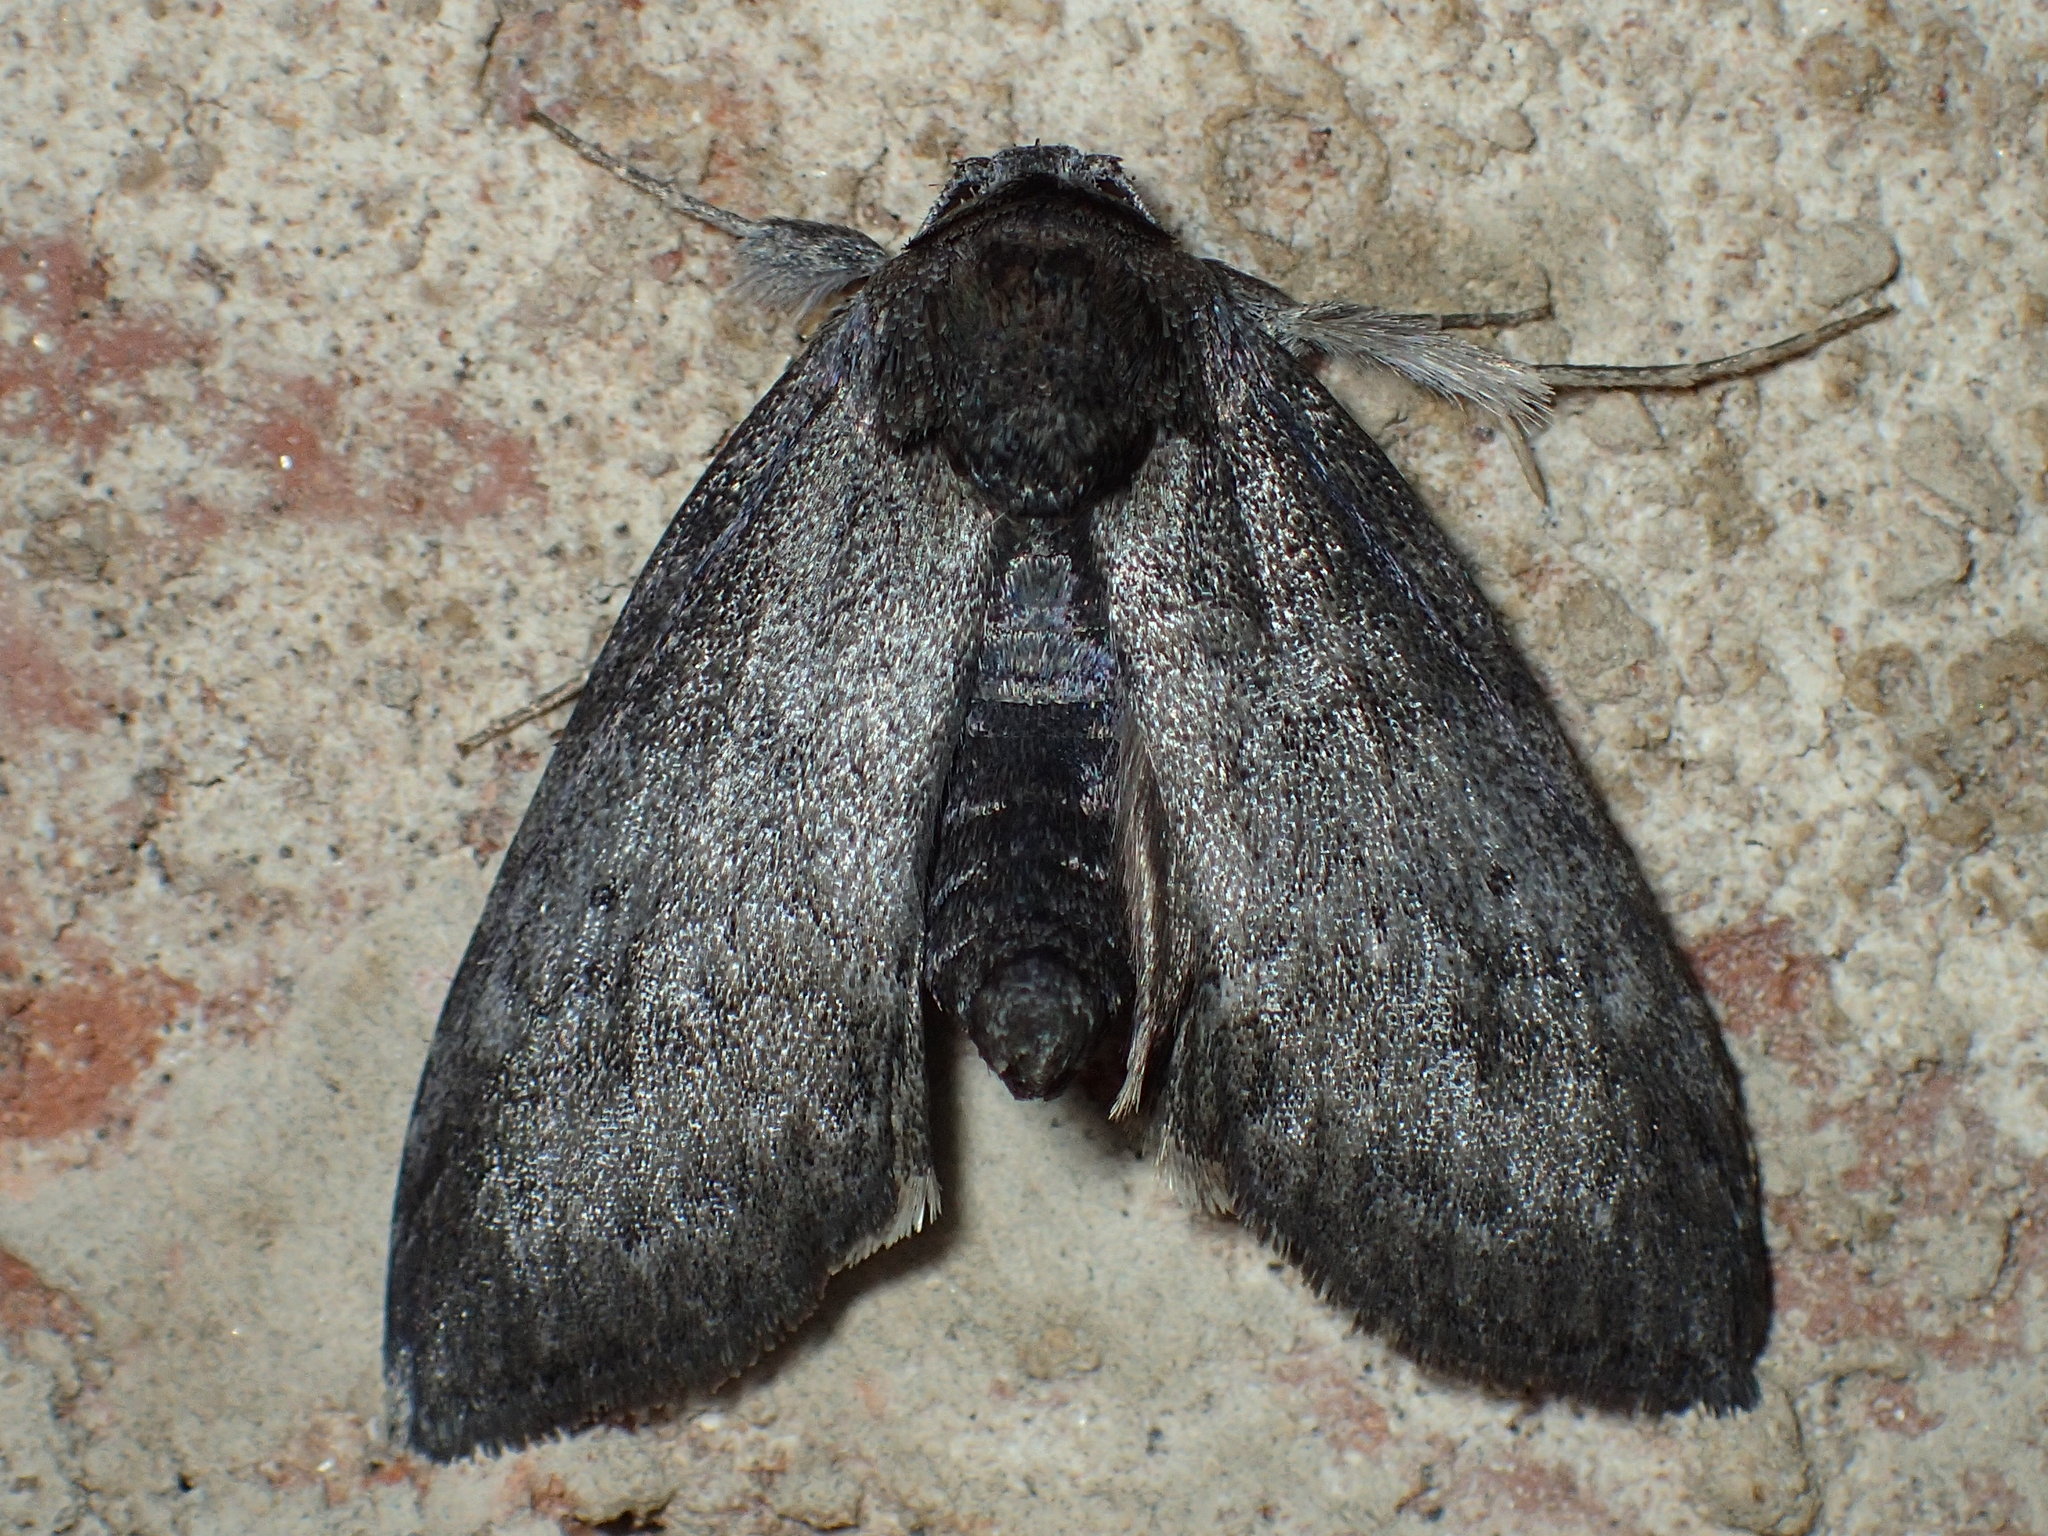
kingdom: Animalia
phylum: Arthropoda
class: Insecta
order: Lepidoptera
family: Nolidae
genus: Baileya
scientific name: Baileya ellessyoo
